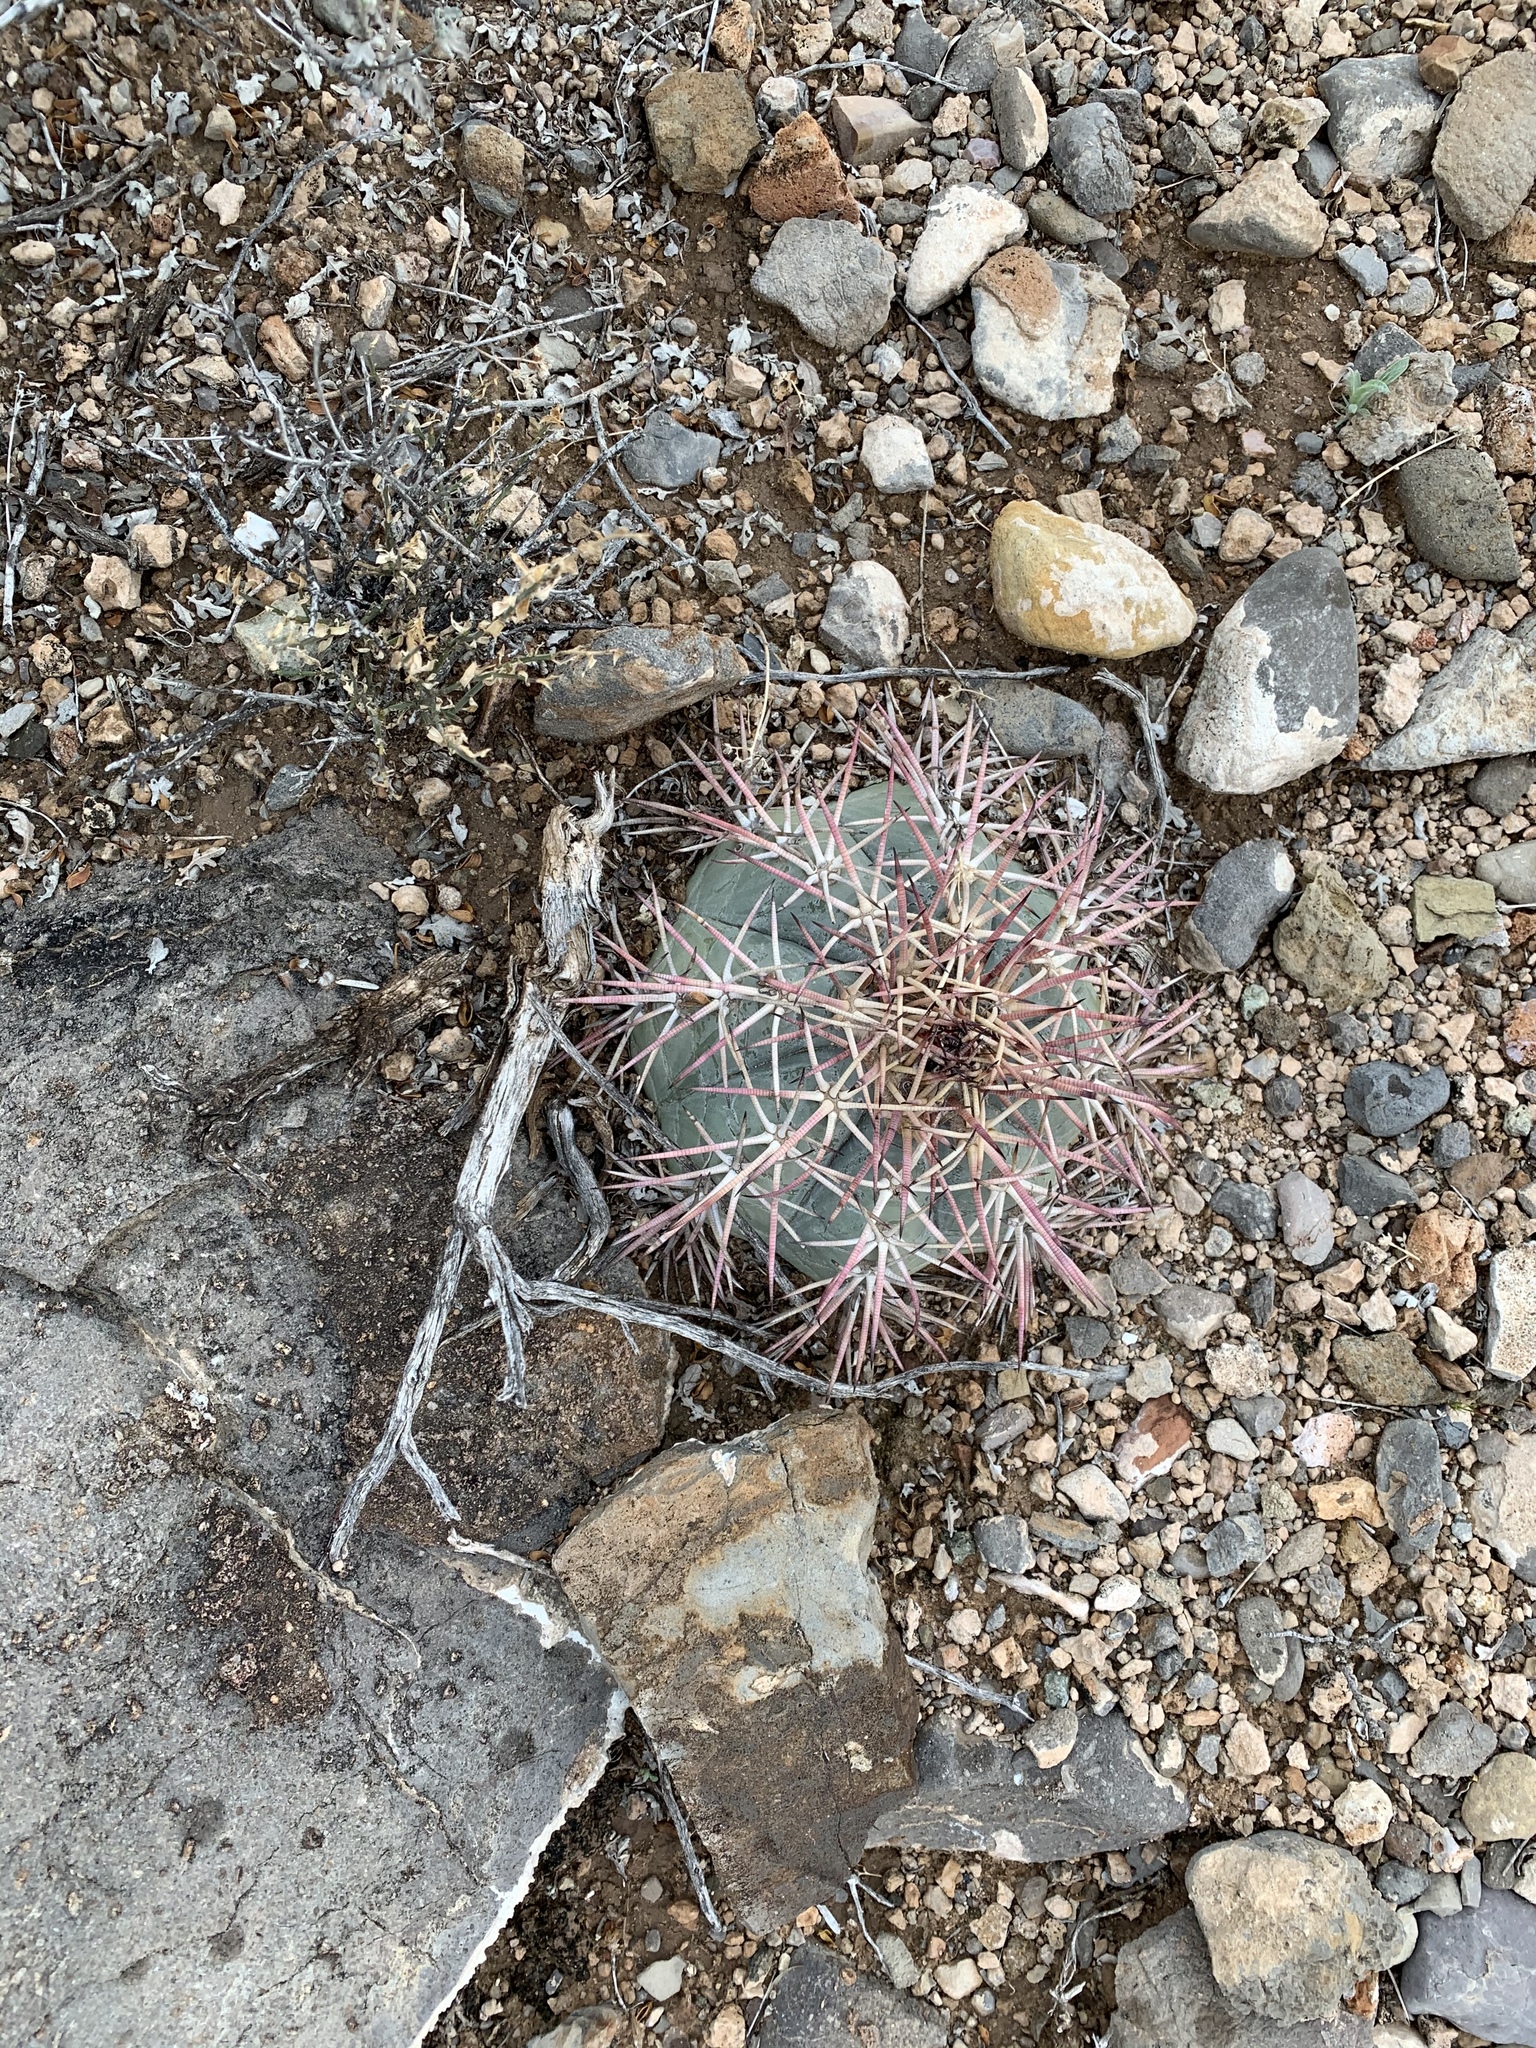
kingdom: Plantae
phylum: Tracheophyta
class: Magnoliopsida
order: Caryophyllales
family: Cactaceae
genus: Echinocactus
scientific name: Echinocactus horizonthalonius
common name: Devilshead
